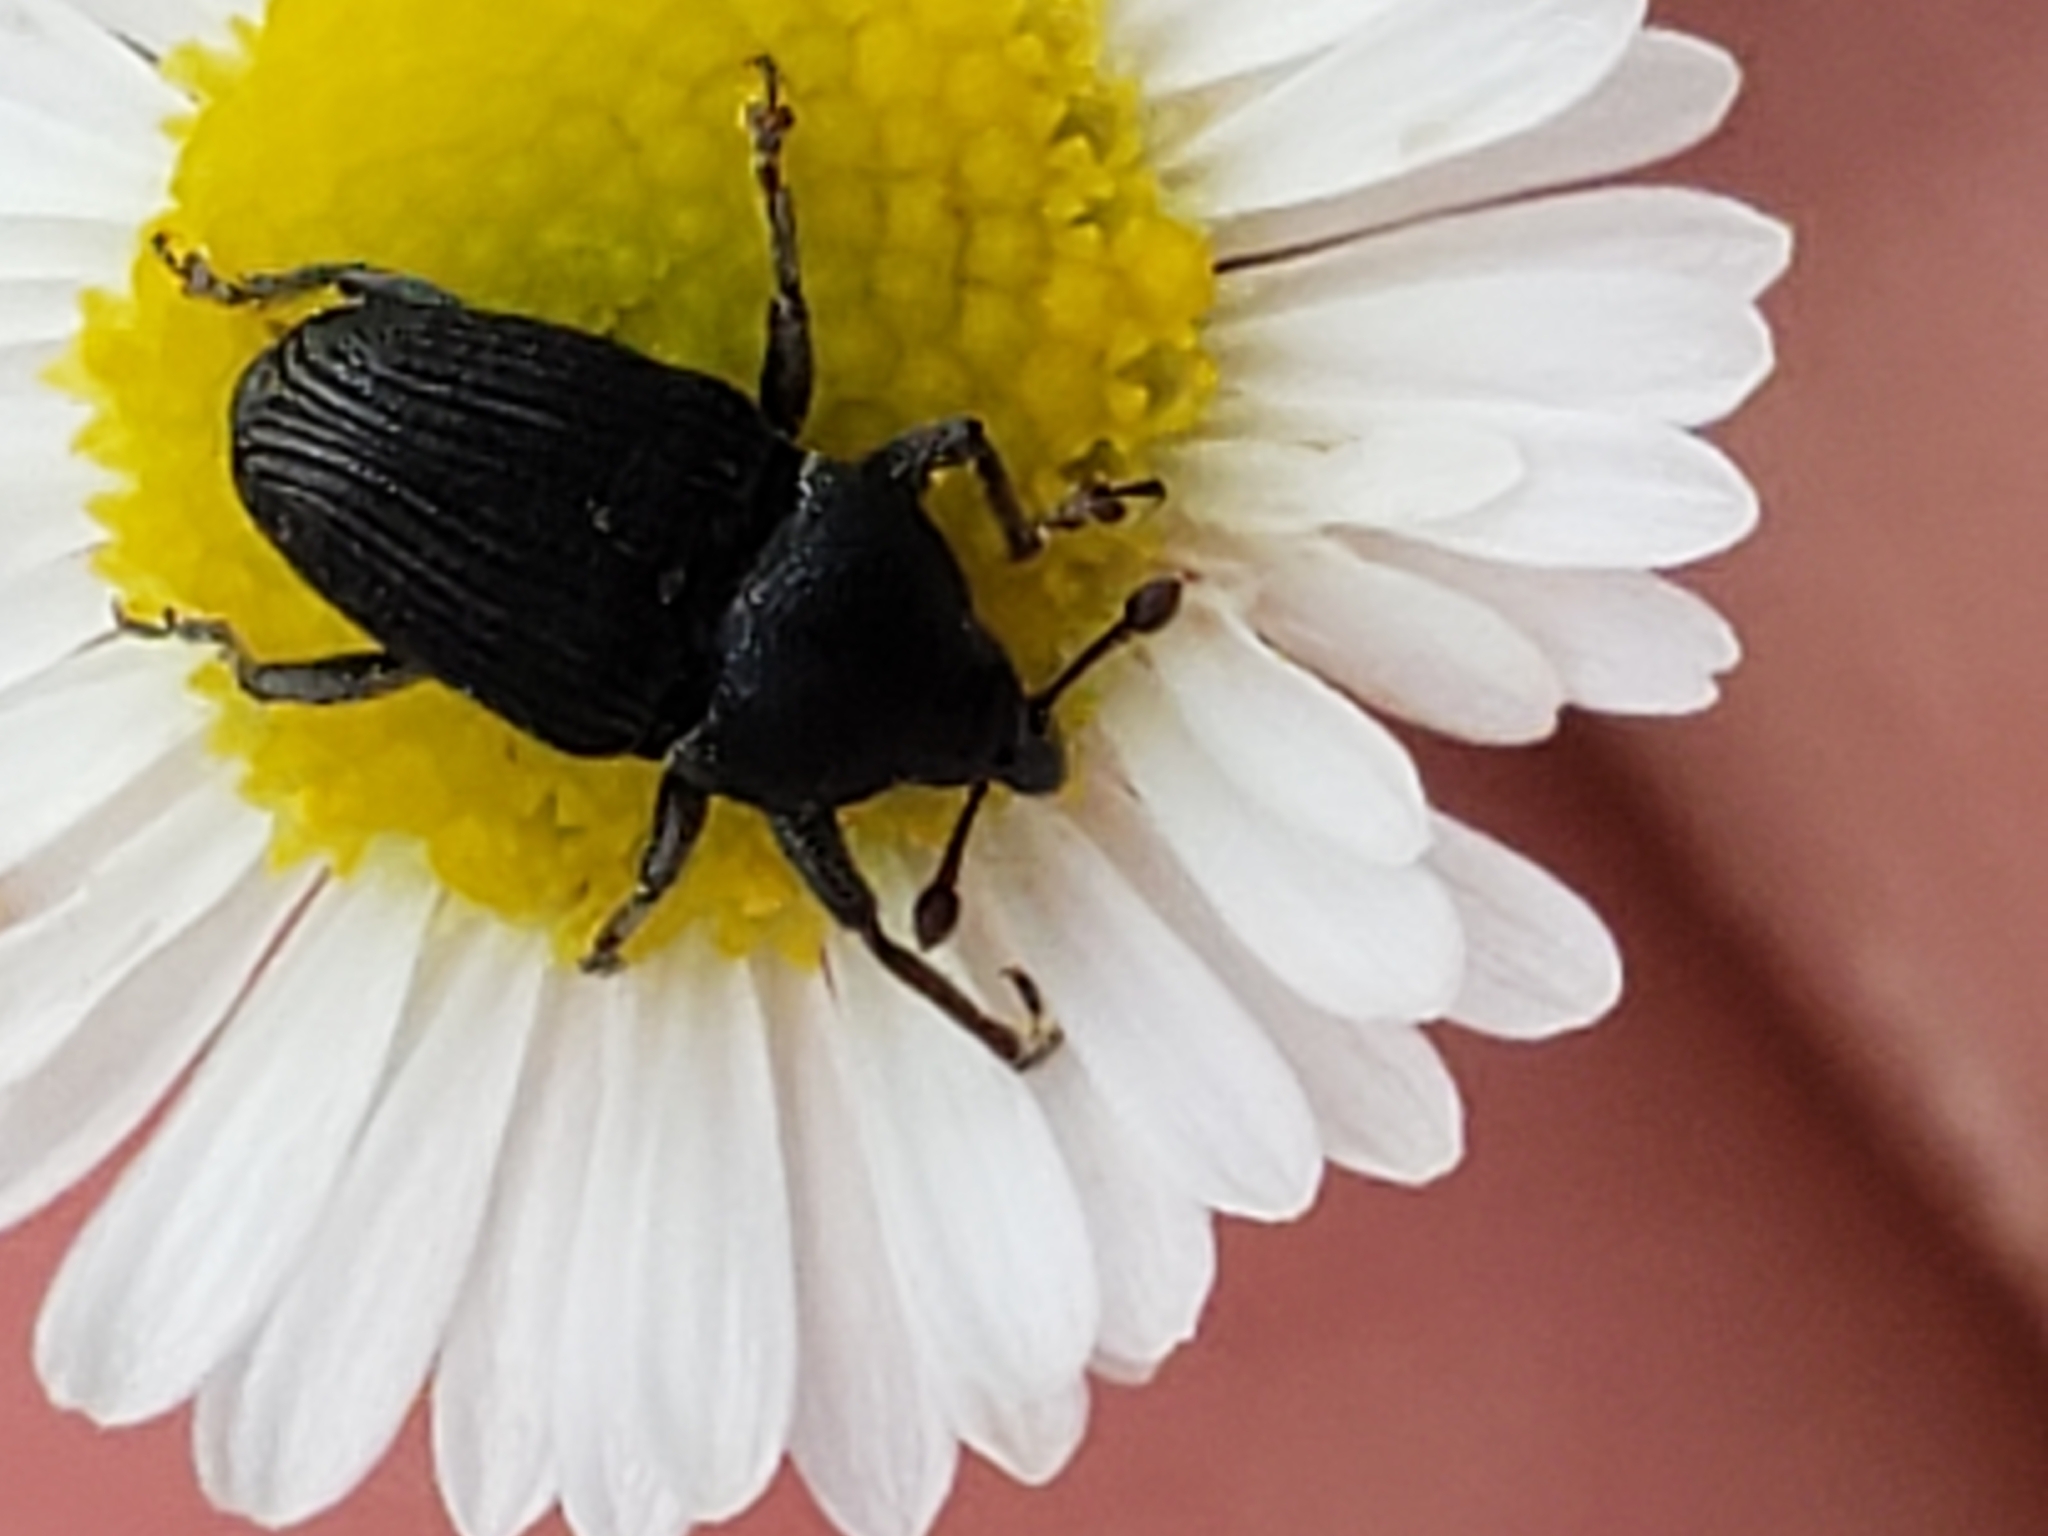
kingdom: Animalia
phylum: Arthropoda
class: Insecta
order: Coleoptera
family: Curculionidae
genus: Odontocorynus
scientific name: Odontocorynus salebrosus
